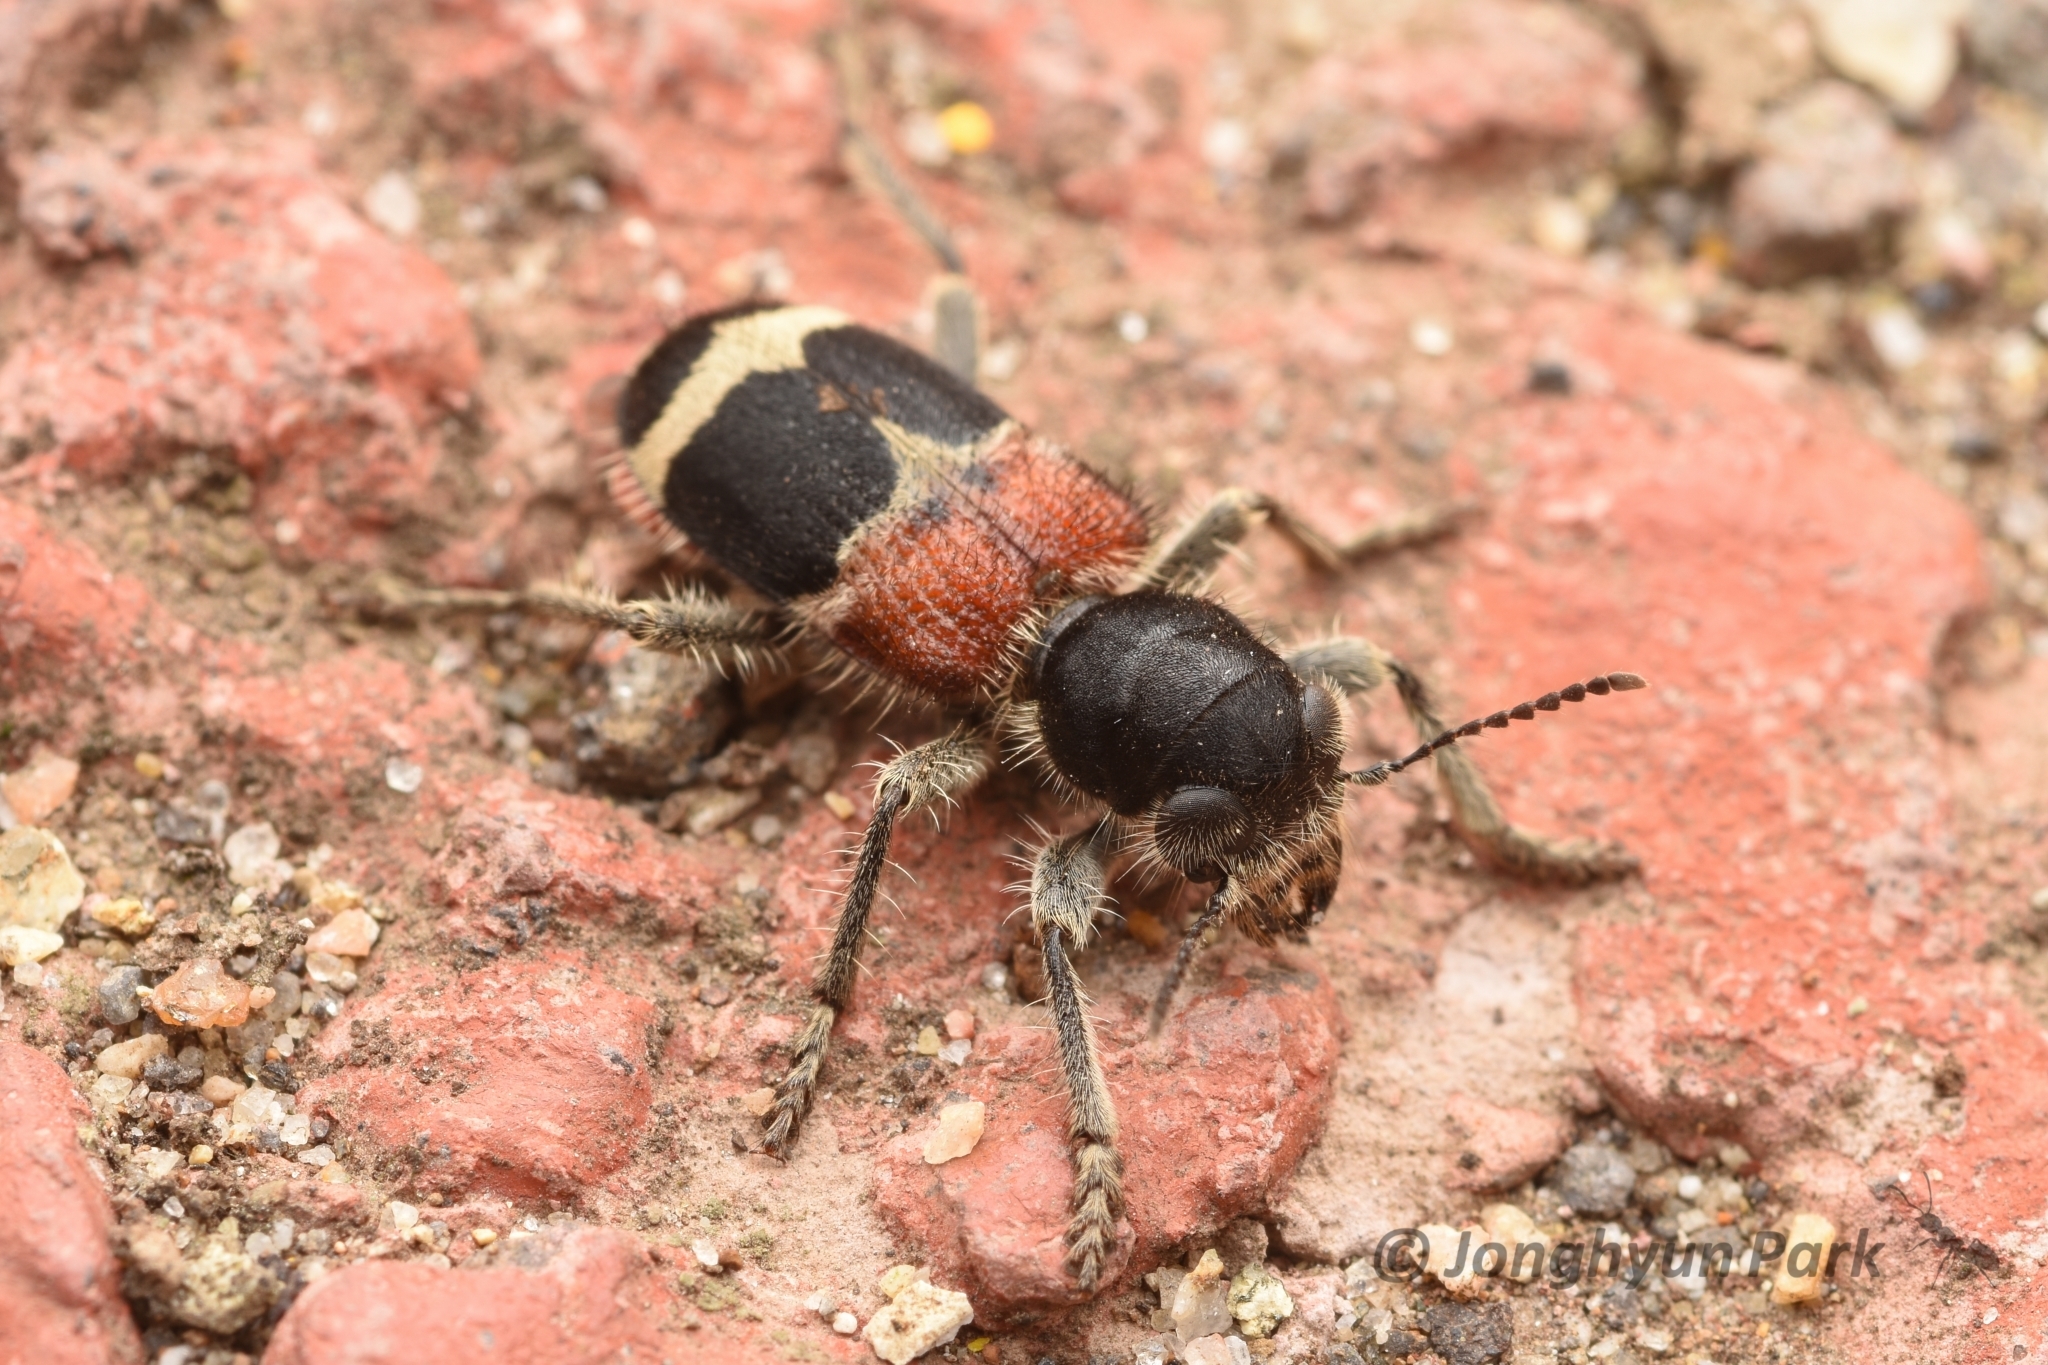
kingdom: Animalia
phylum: Arthropoda
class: Insecta
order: Coleoptera
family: Cleridae
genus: Clerus
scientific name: Clerus
